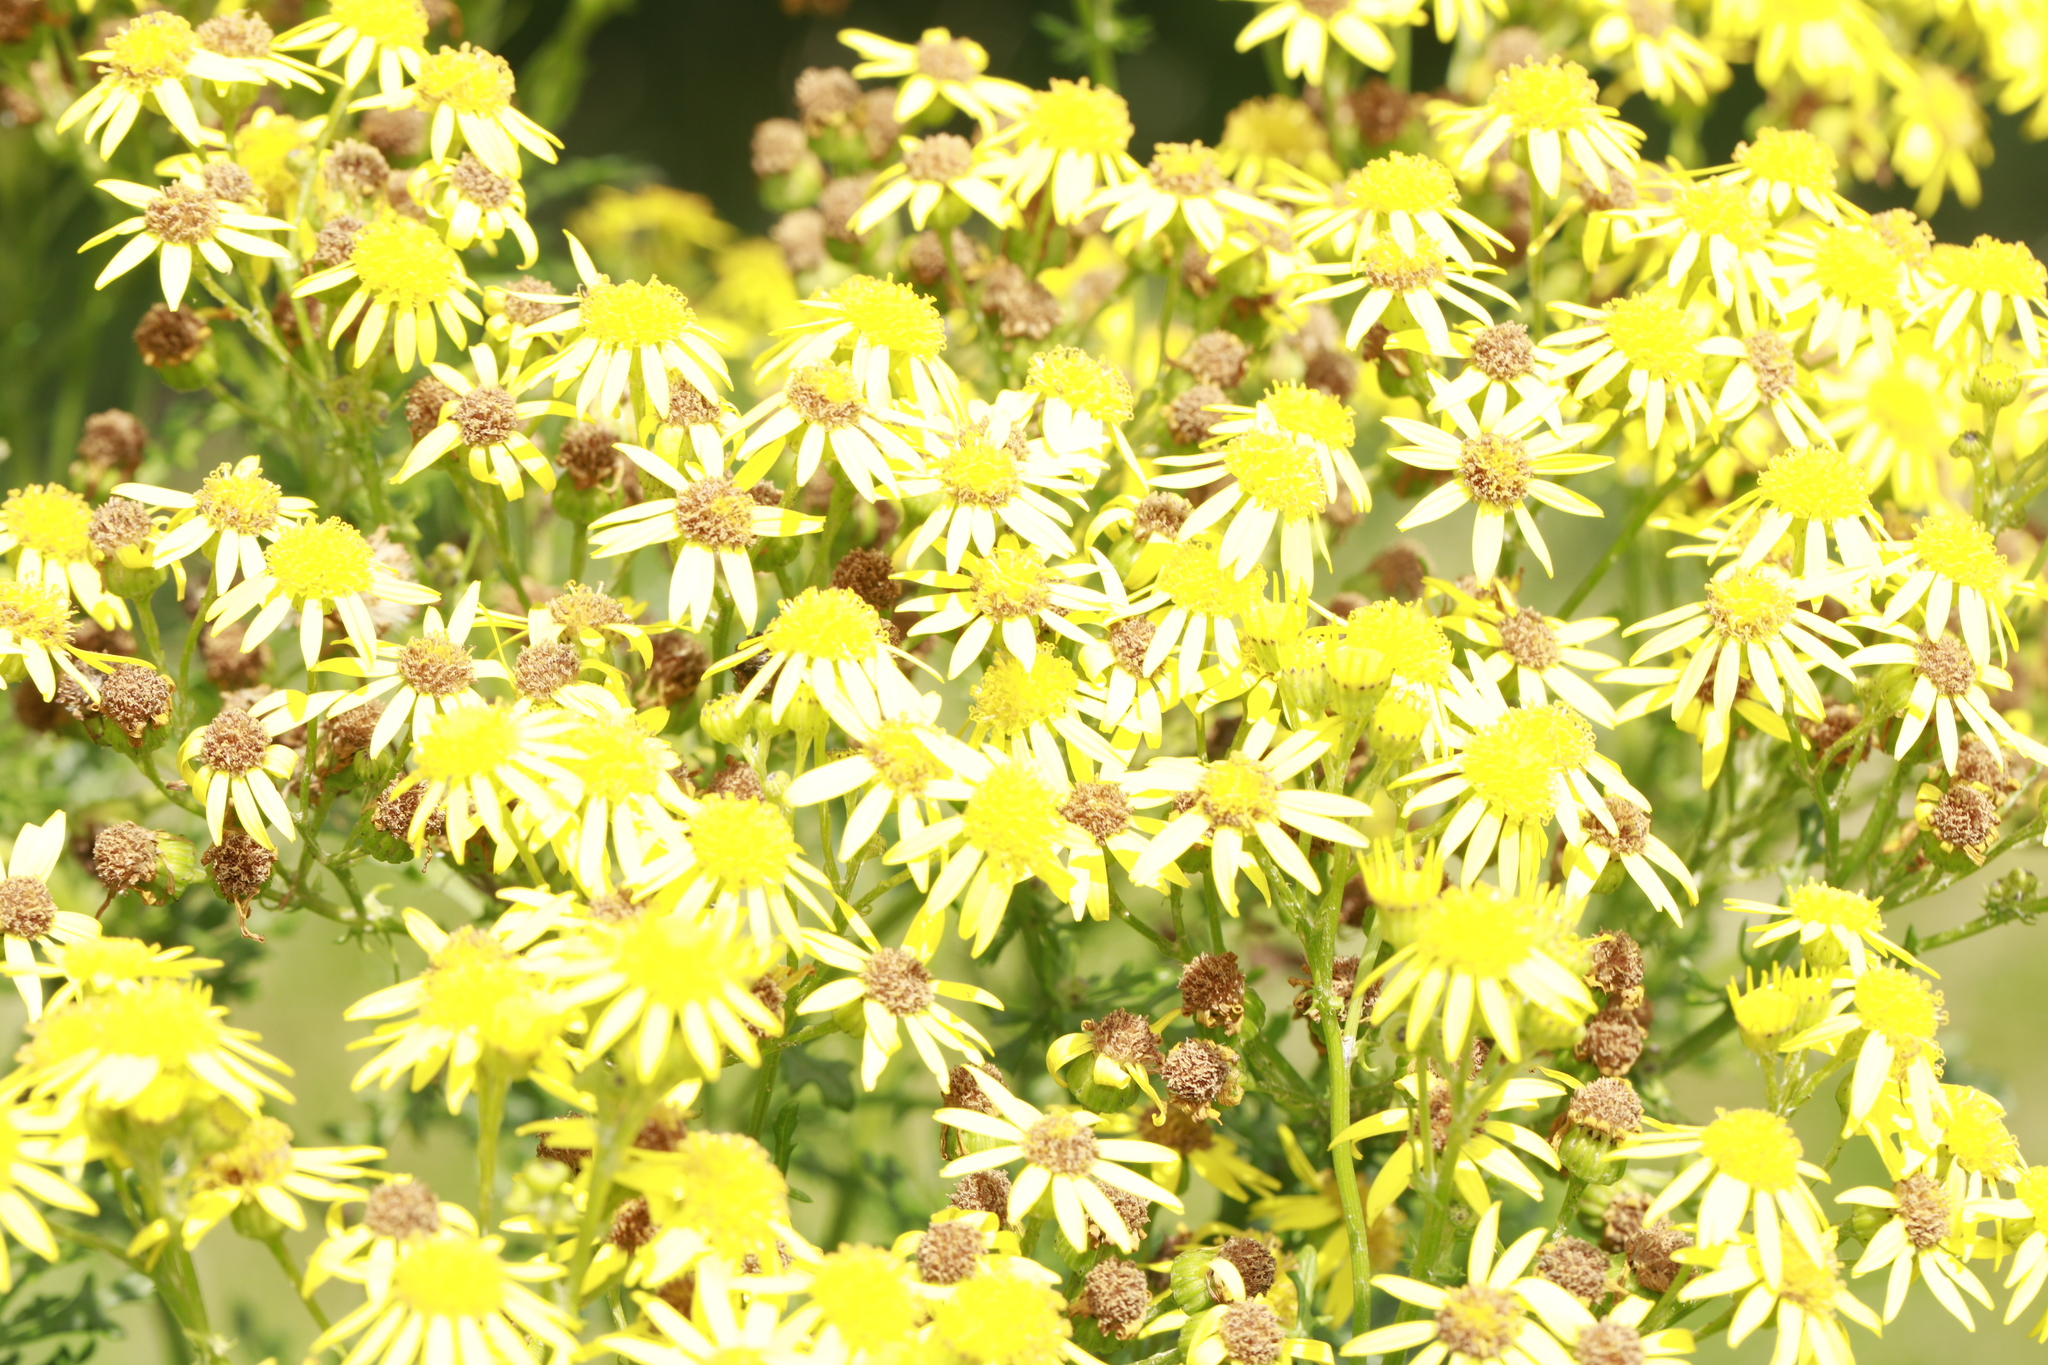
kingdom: Plantae
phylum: Tracheophyta
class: Magnoliopsida
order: Asterales
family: Asteraceae
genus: Jacobaea
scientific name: Jacobaea vulgaris
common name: Stinking willie
